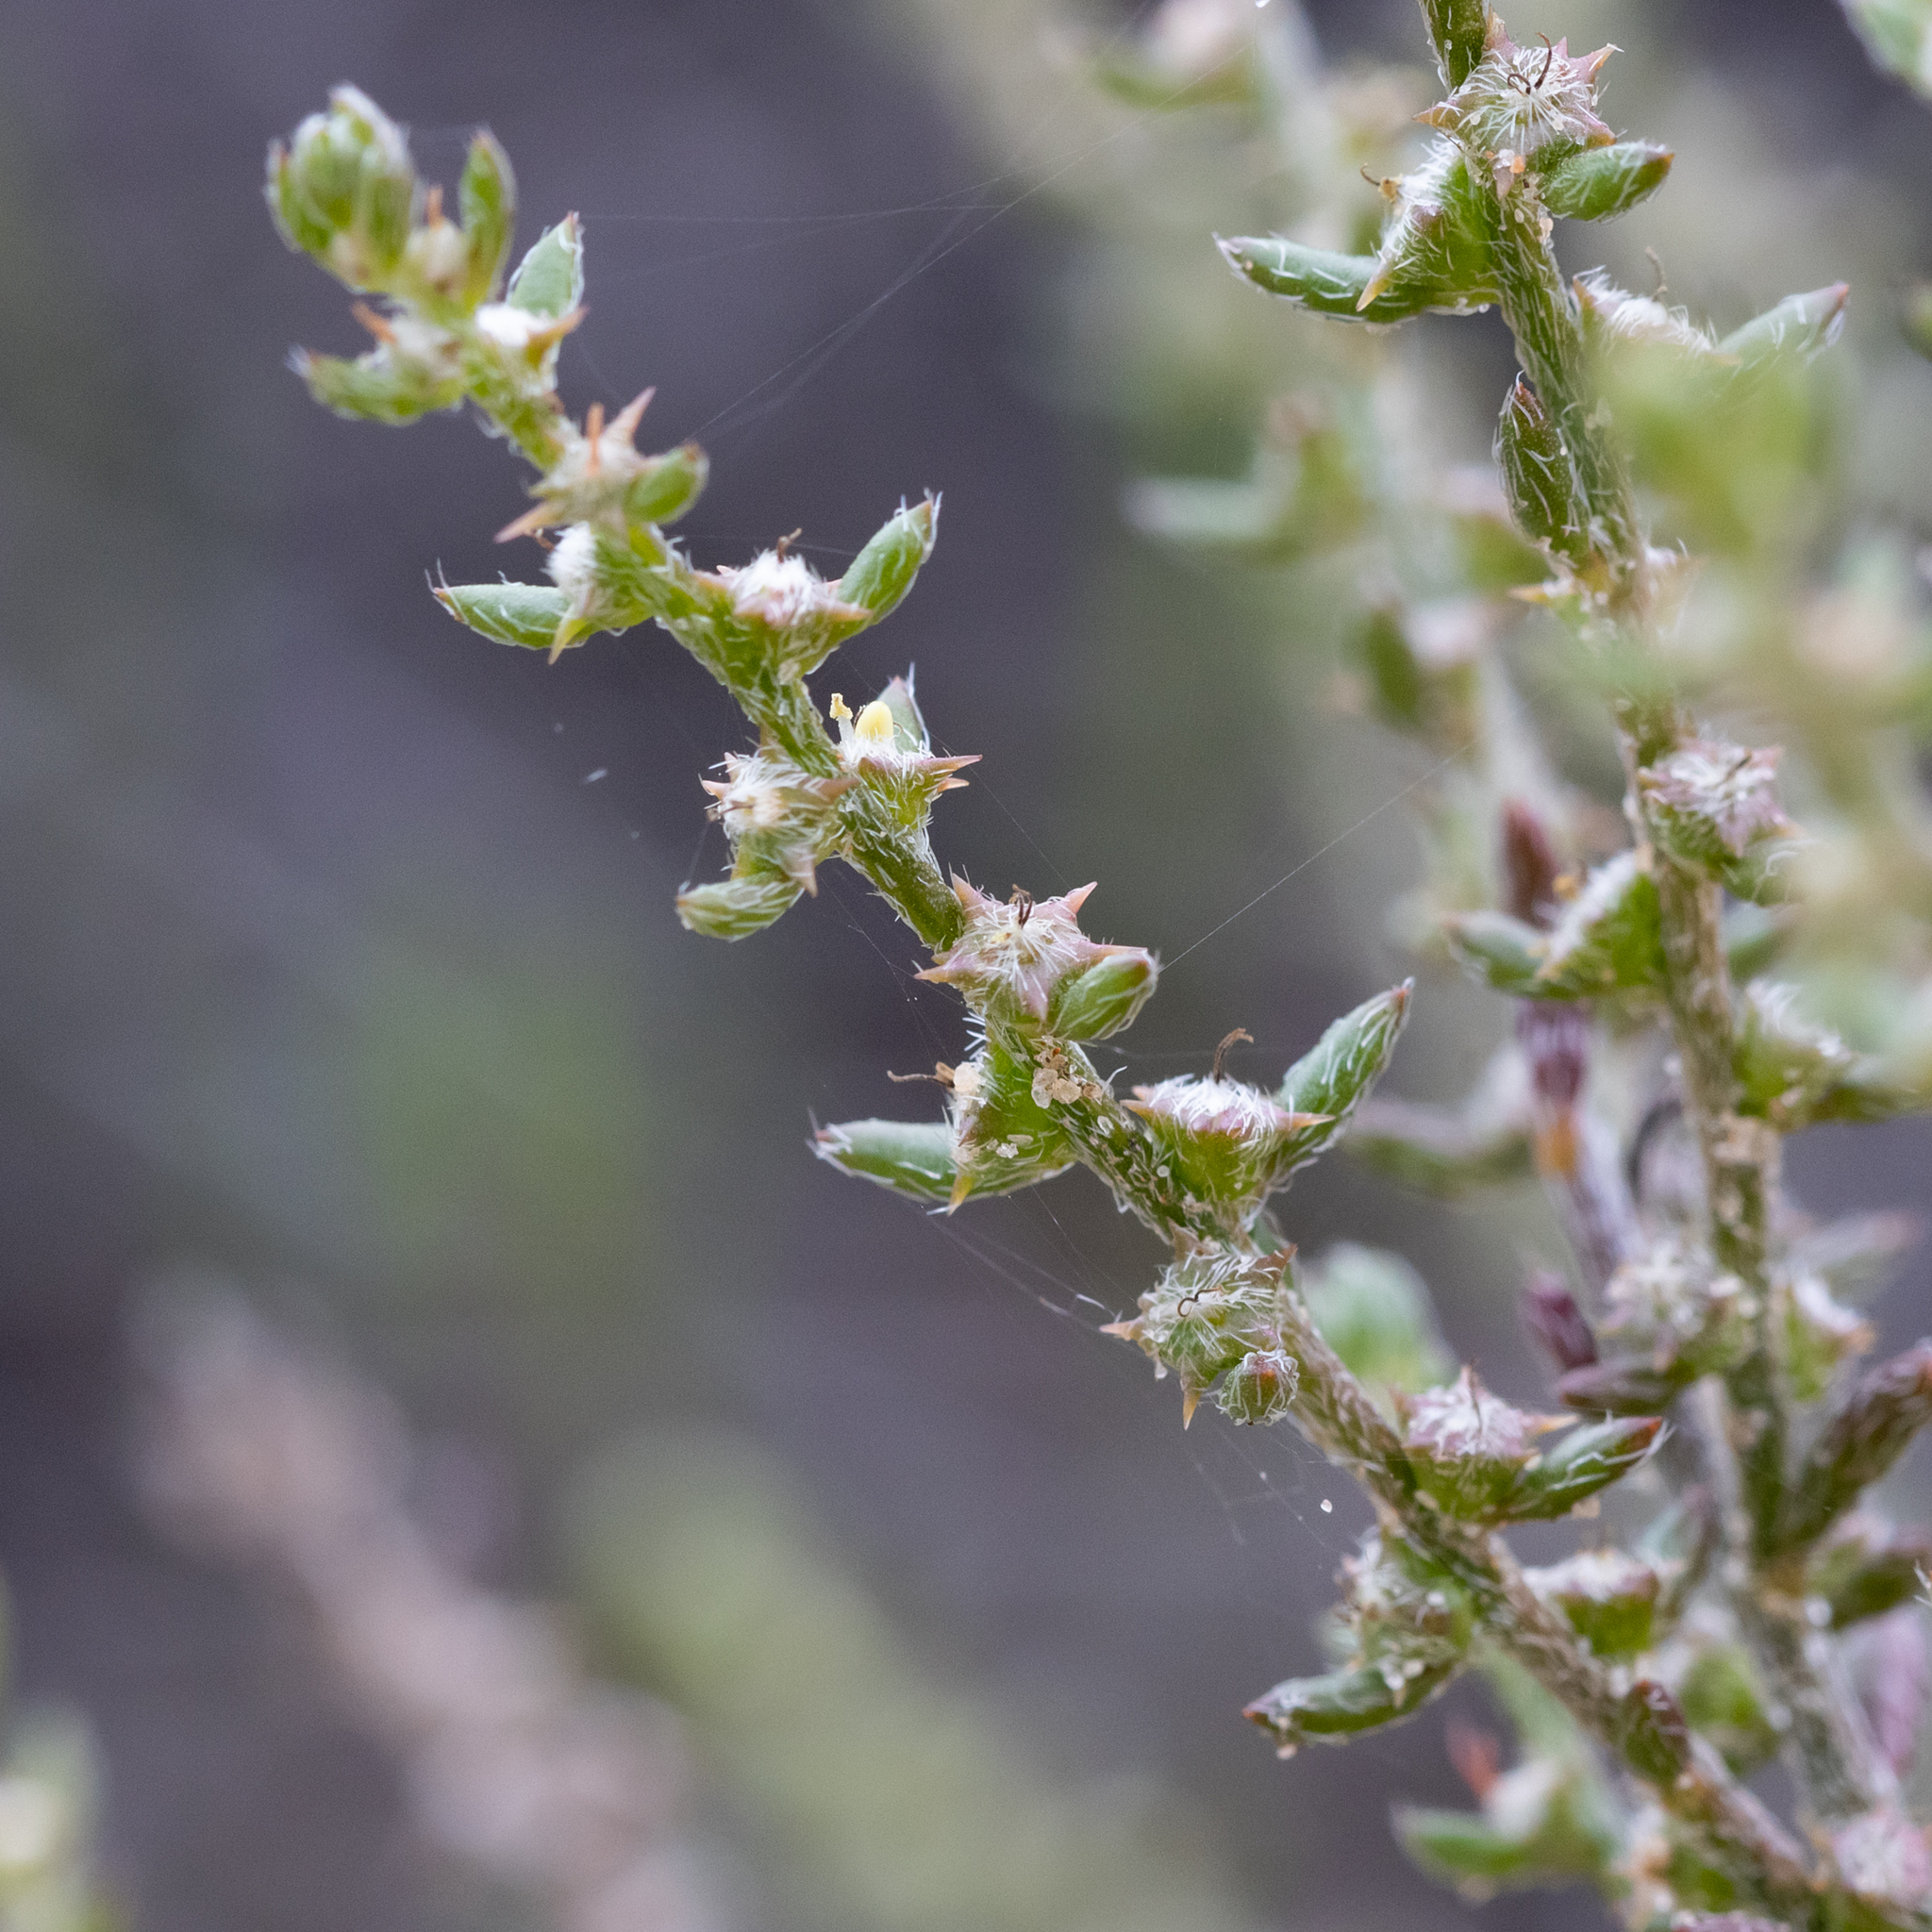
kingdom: Plantae
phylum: Tracheophyta
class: Magnoliopsida
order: Caryophyllales
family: Amaranthaceae
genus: Sclerolaena
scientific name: Sclerolaena parviflora
